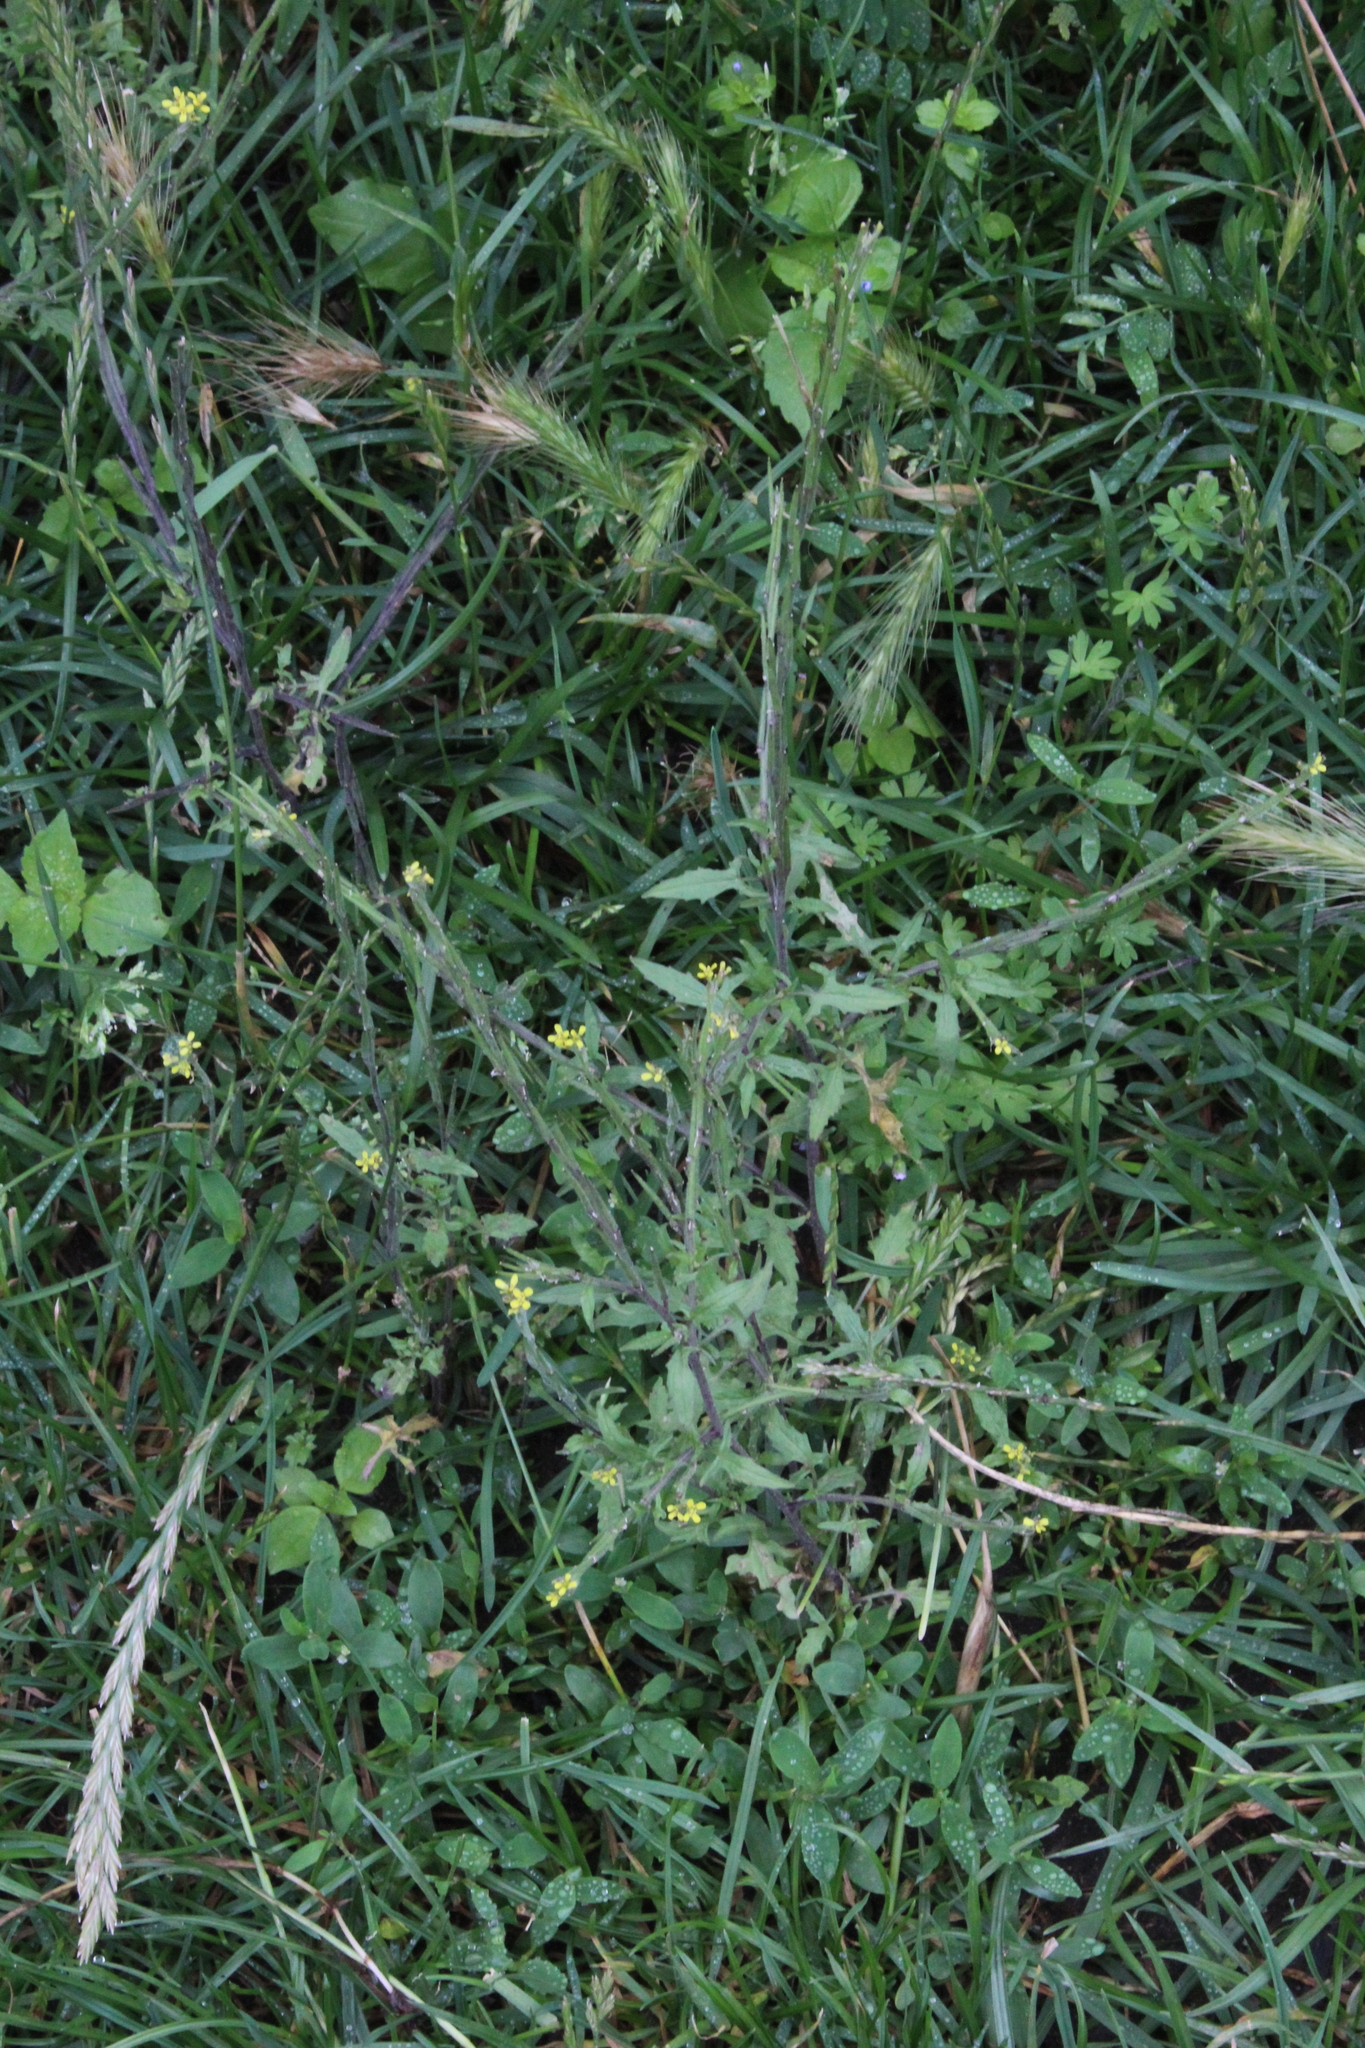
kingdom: Plantae
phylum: Tracheophyta
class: Magnoliopsida
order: Brassicales
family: Brassicaceae
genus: Sisymbrium
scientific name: Sisymbrium officinale
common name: Hedge mustard
